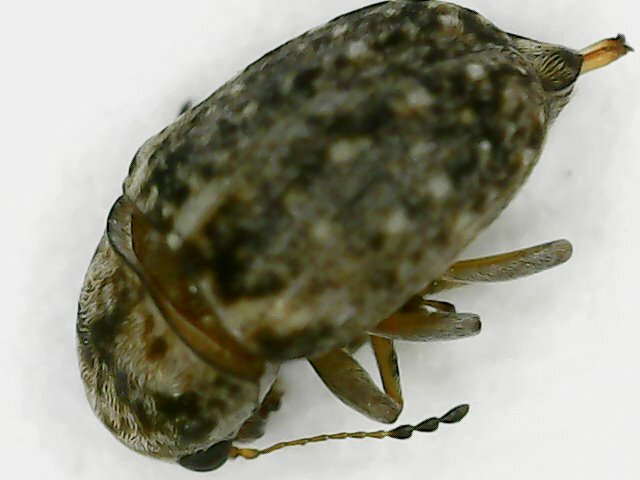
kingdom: Animalia
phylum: Arthropoda
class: Insecta
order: Coleoptera
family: Anthribidae
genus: Araecerus
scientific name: Araecerus fasciculatus
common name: Coffee bean weevil
